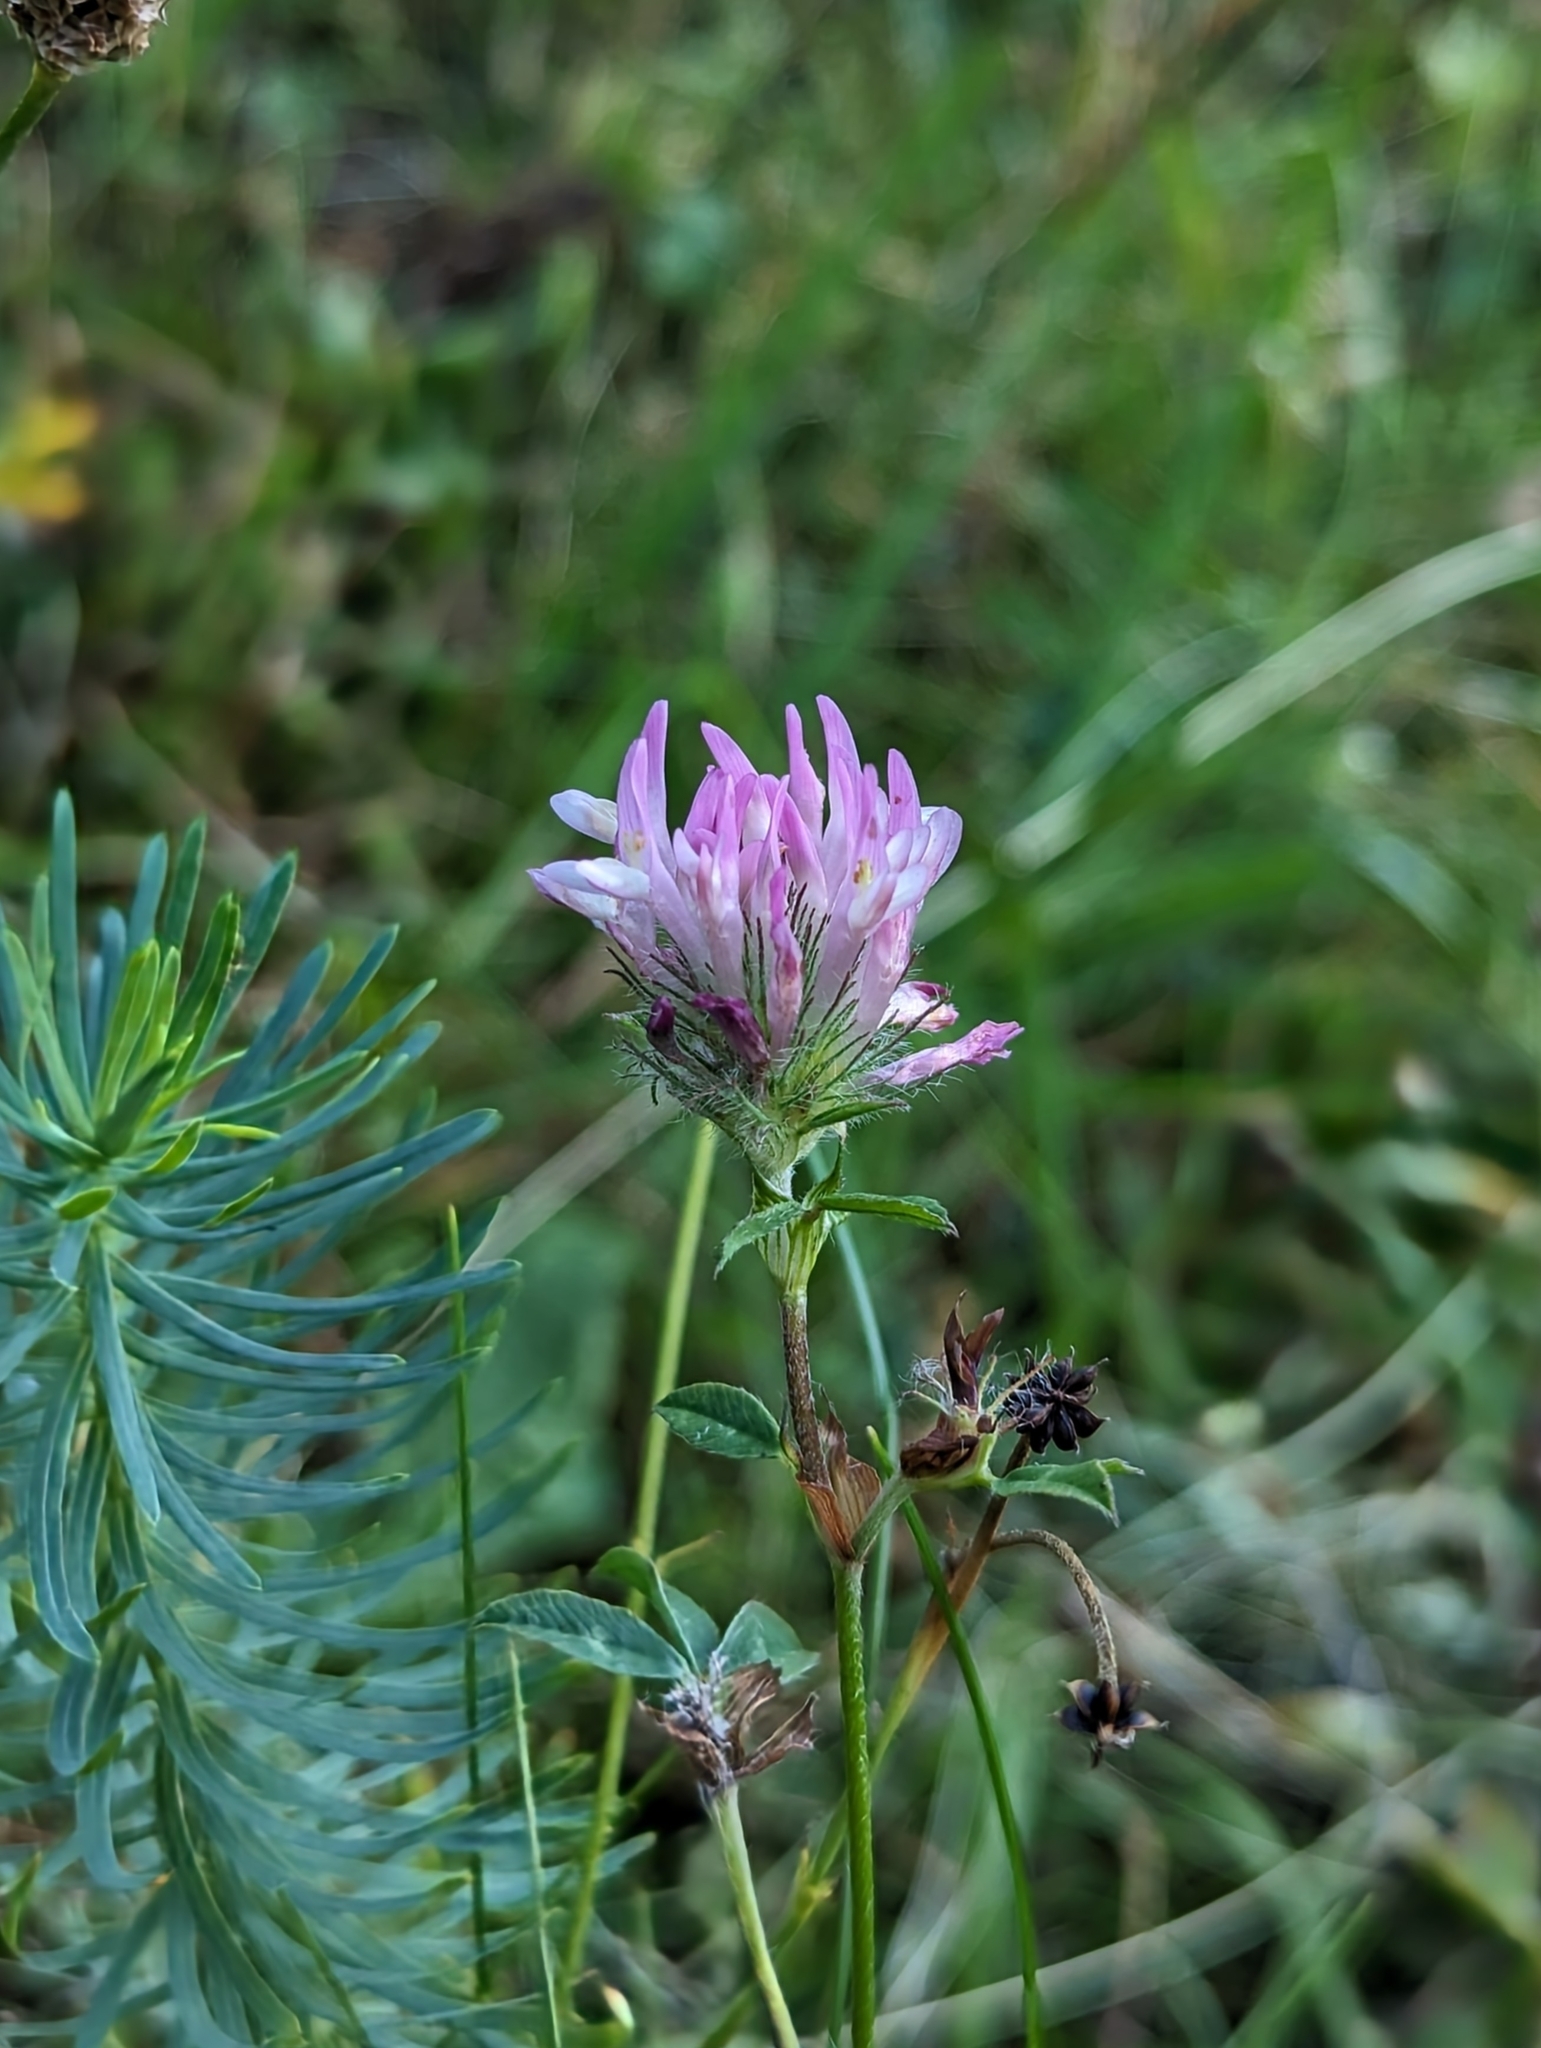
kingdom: Plantae
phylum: Tracheophyta
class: Magnoliopsida
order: Fabales
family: Fabaceae
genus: Trifolium
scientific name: Trifolium pratense
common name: Red clover
